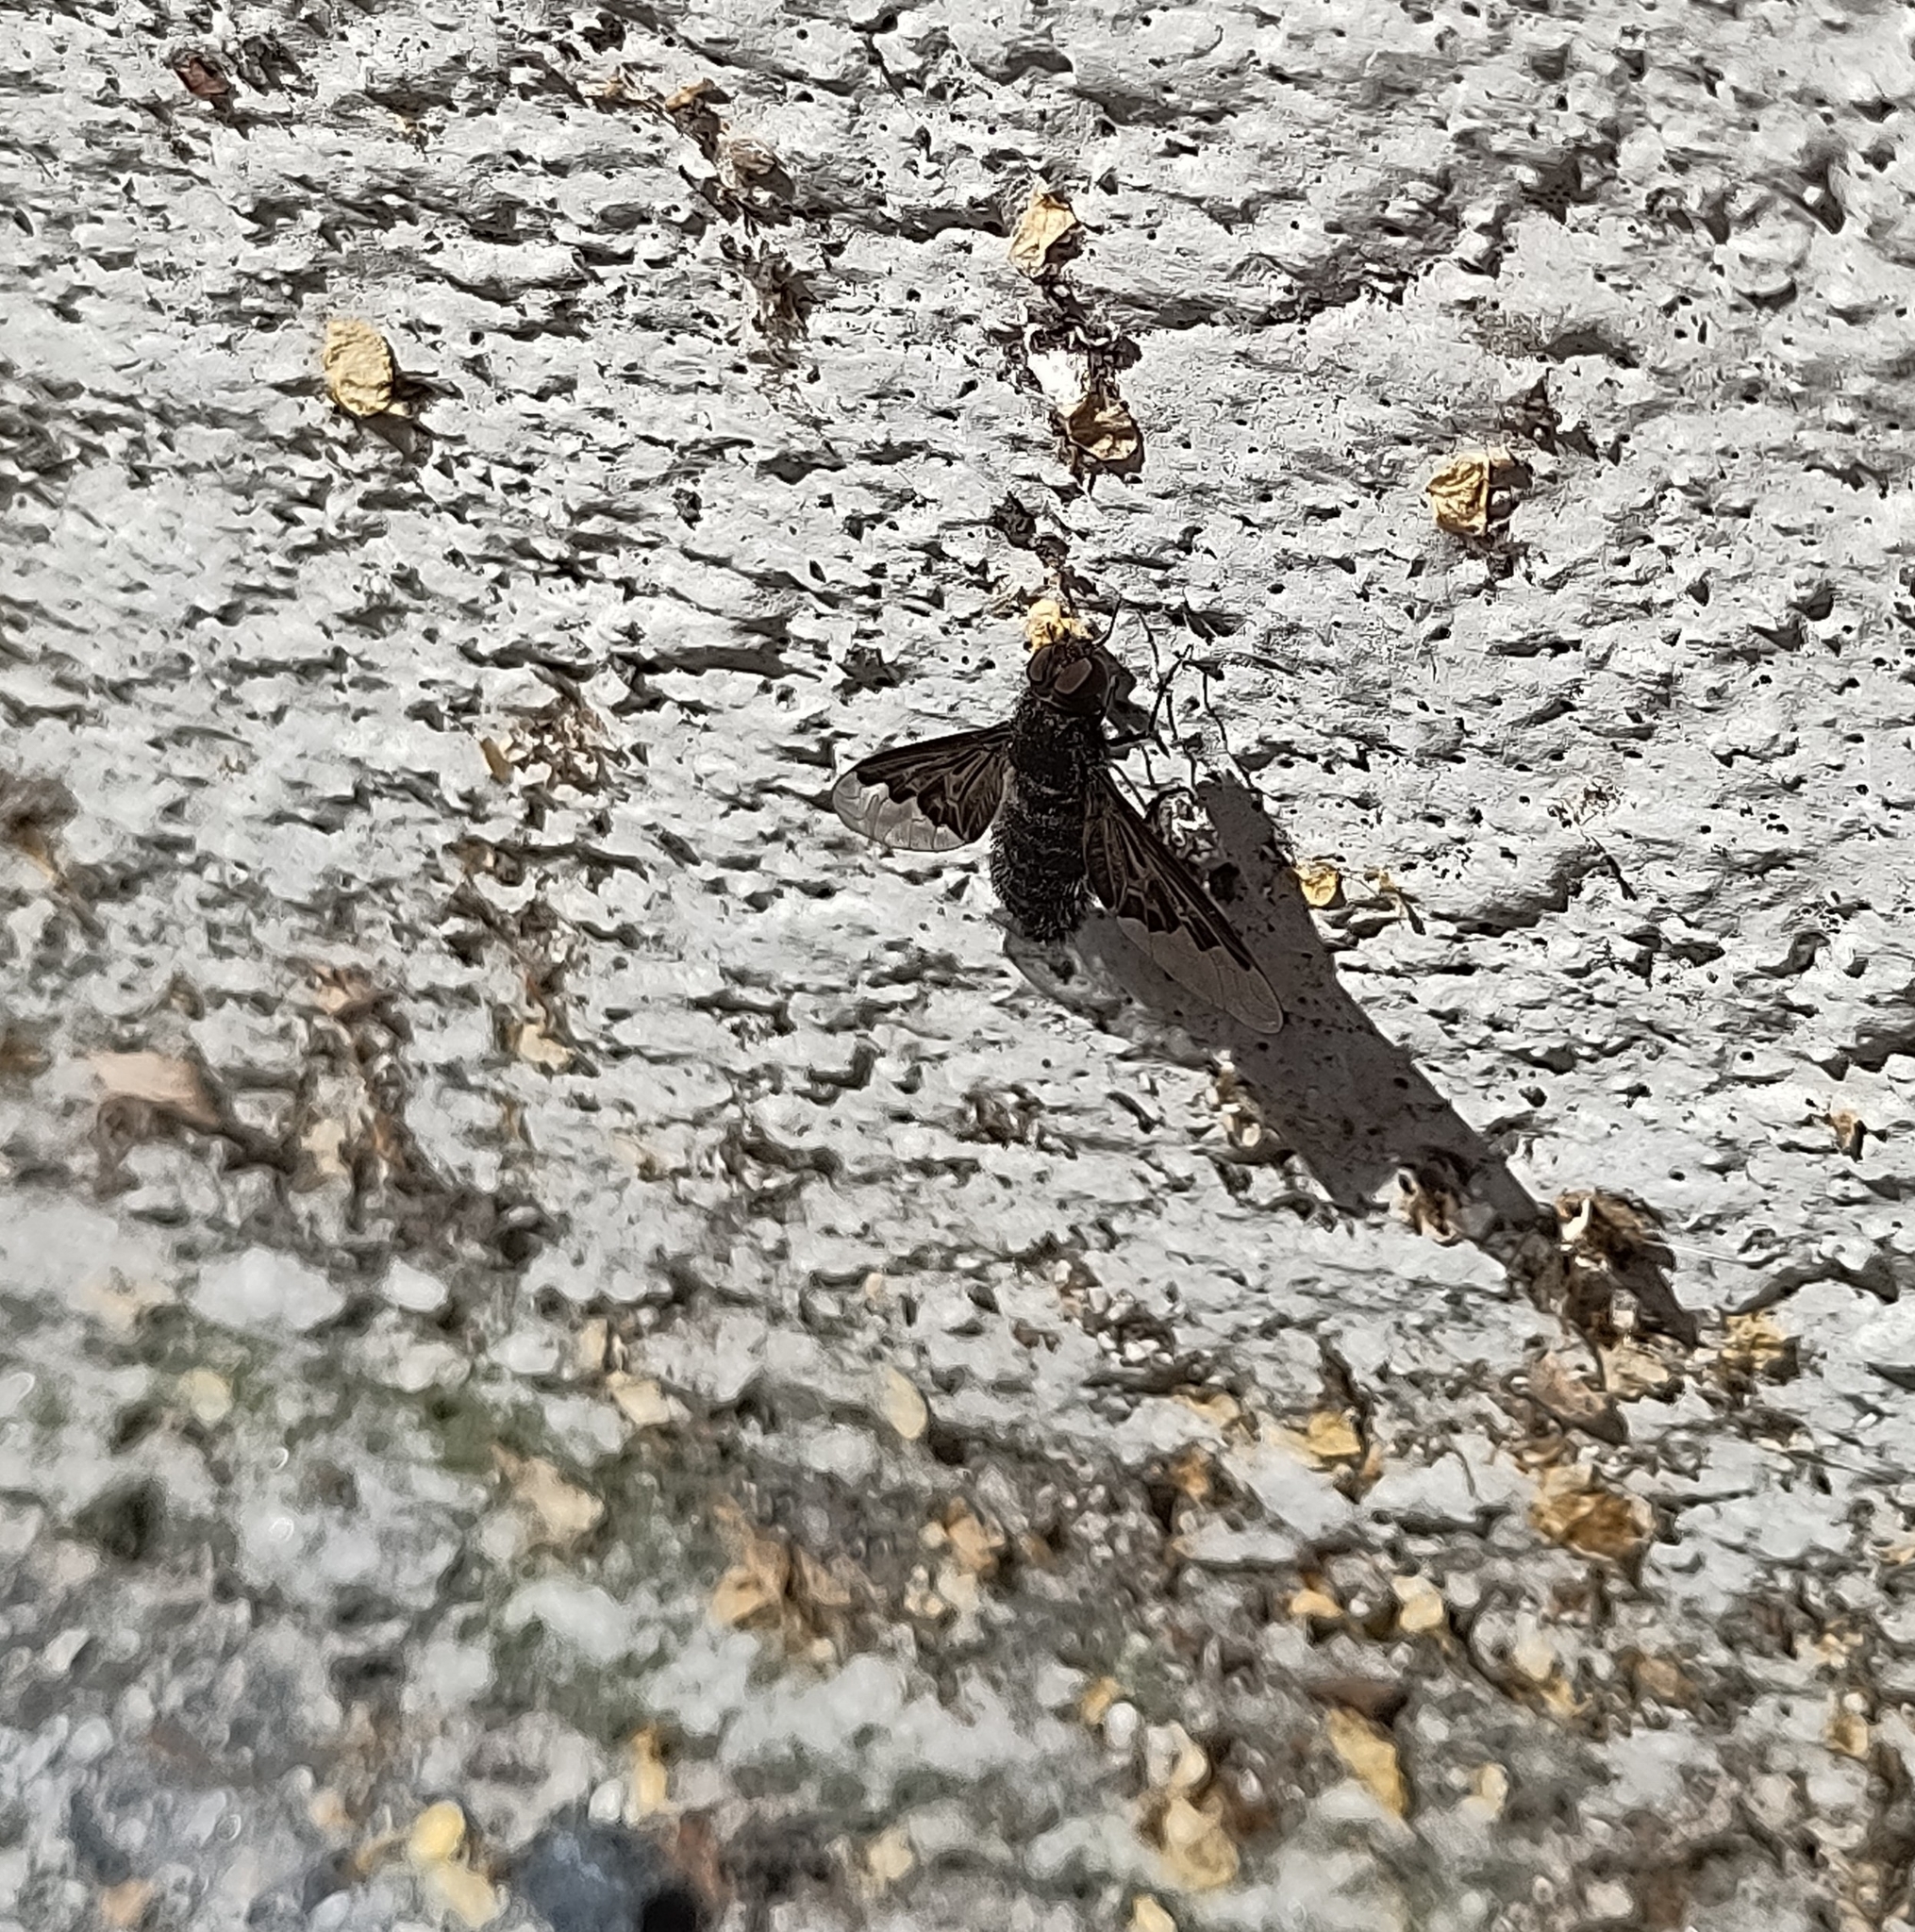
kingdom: Animalia
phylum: Arthropoda
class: Insecta
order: Diptera
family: Bombyliidae
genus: Hemipenthes
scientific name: Hemipenthes morio
